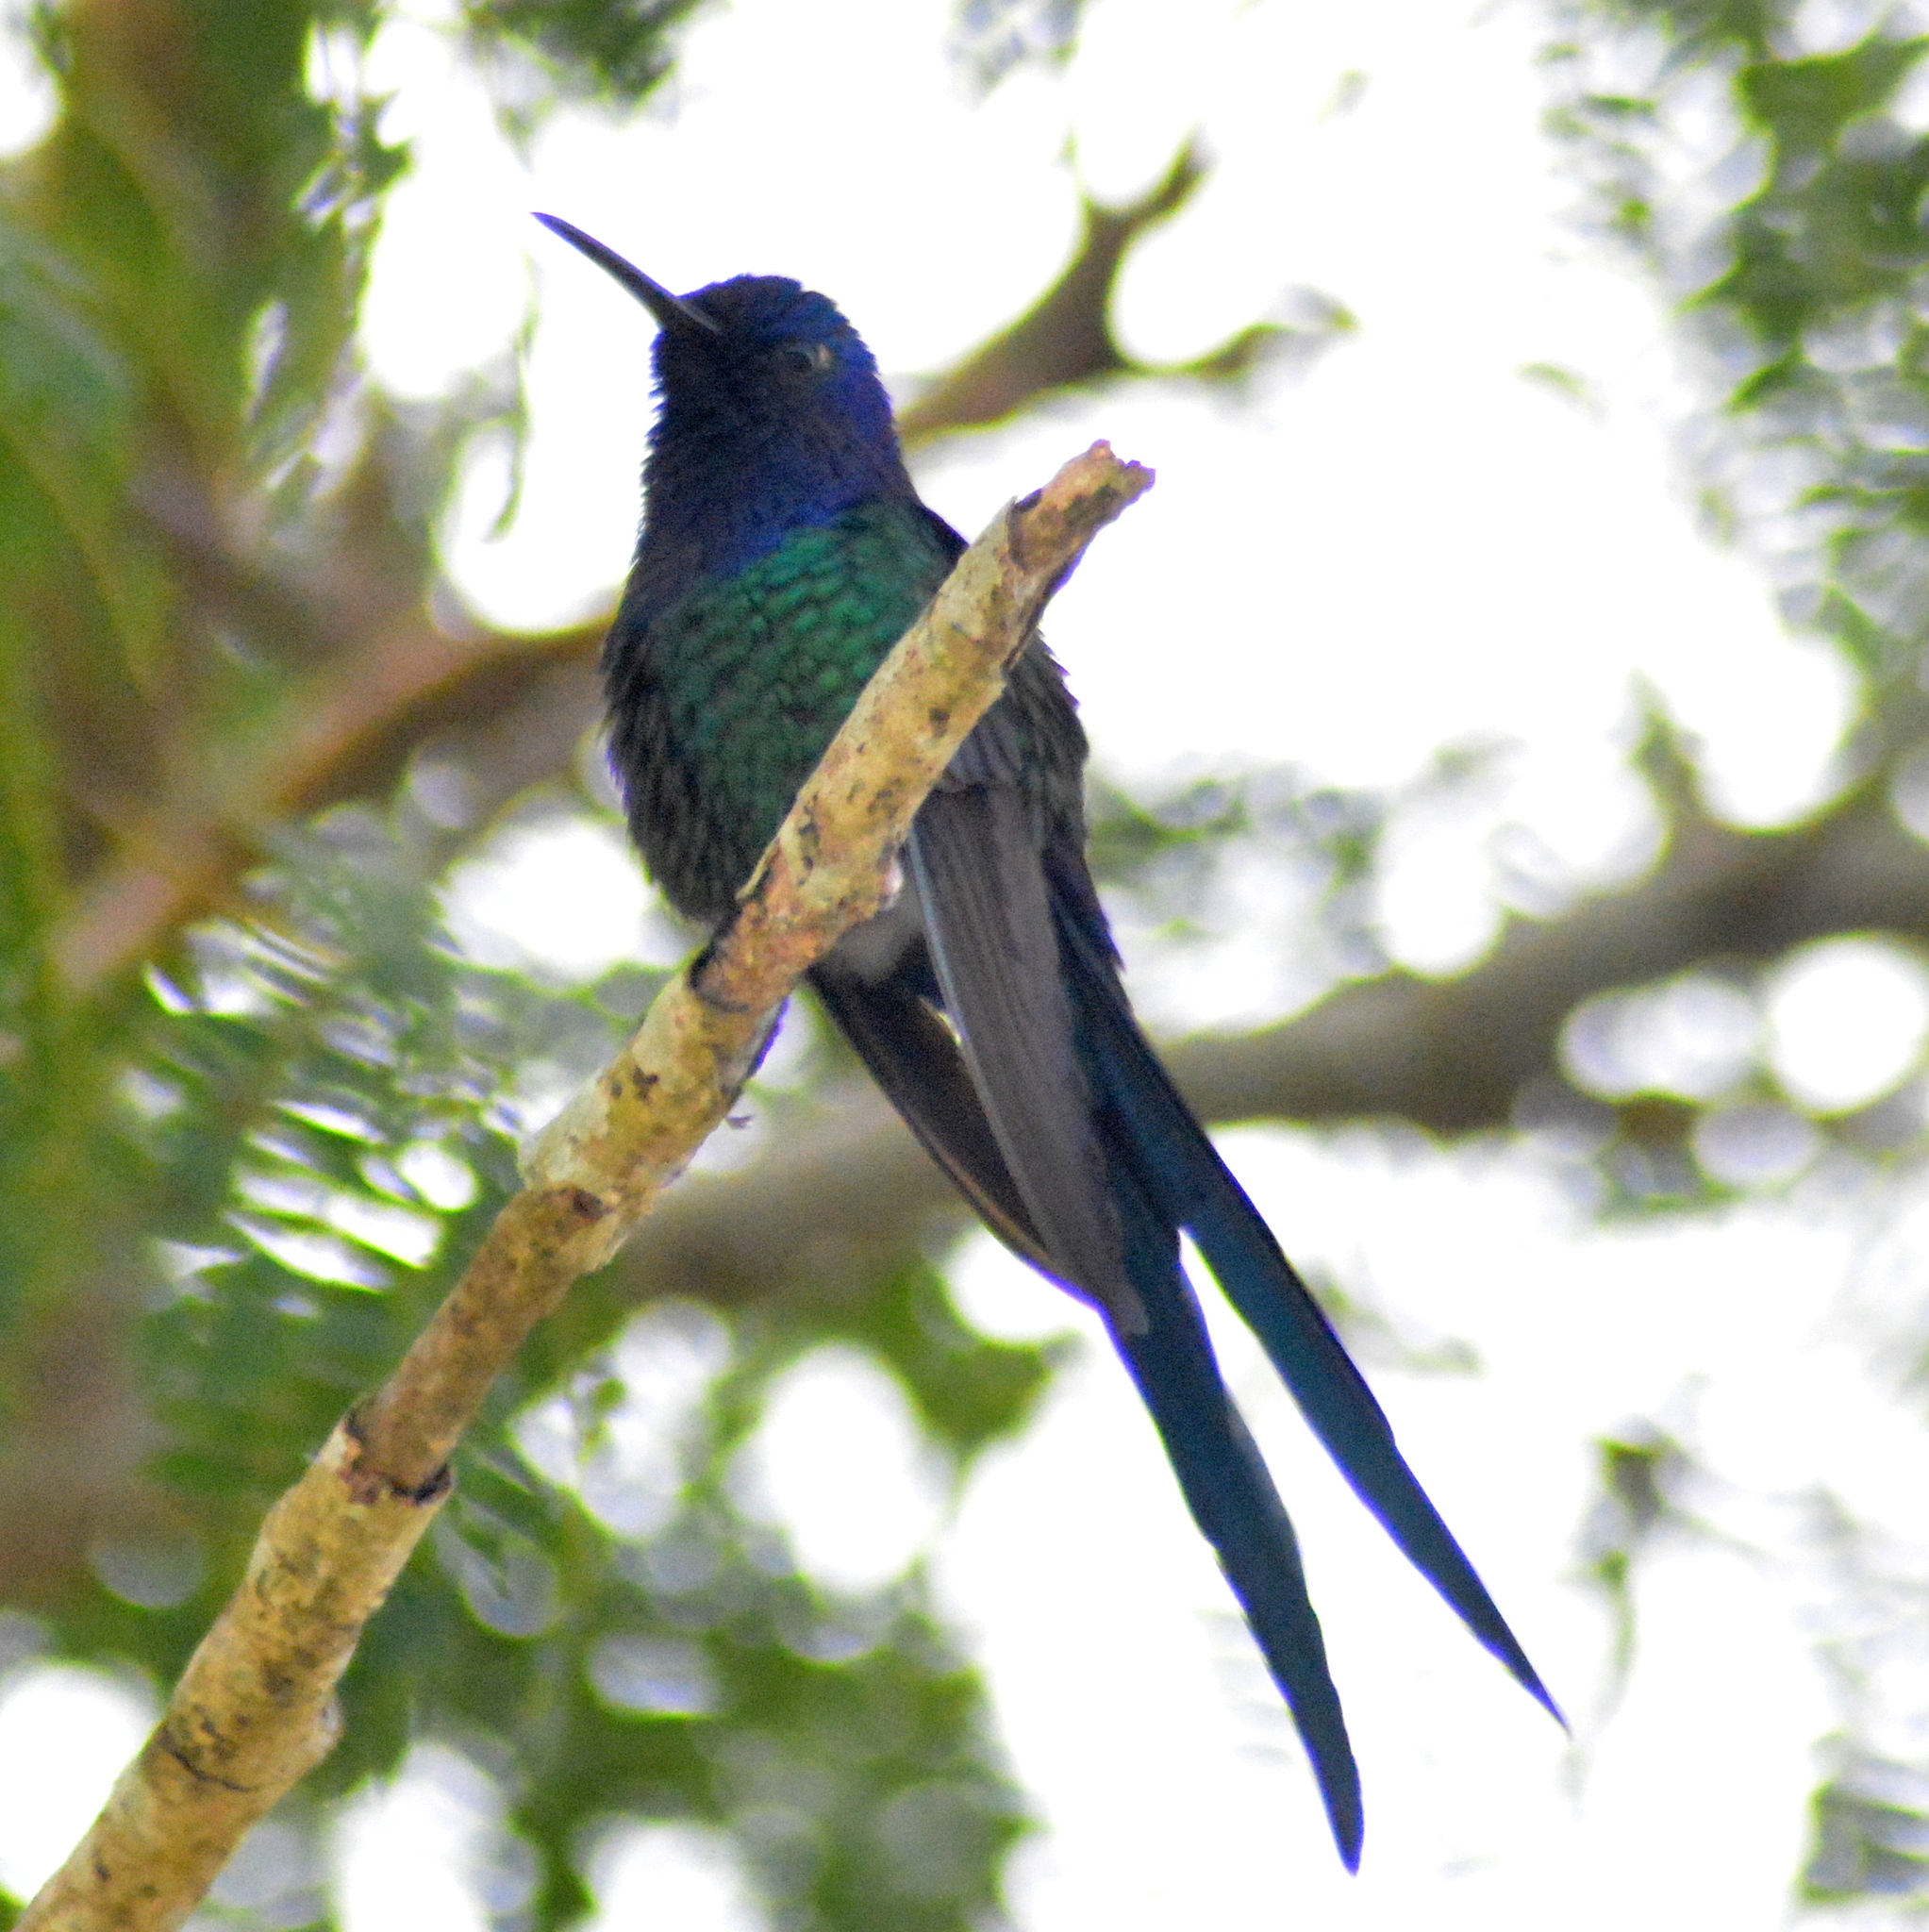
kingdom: Animalia
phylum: Chordata
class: Aves
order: Apodiformes
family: Trochilidae
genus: Eupetomena
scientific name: Eupetomena macroura
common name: Swallow-tailed hummingbird
